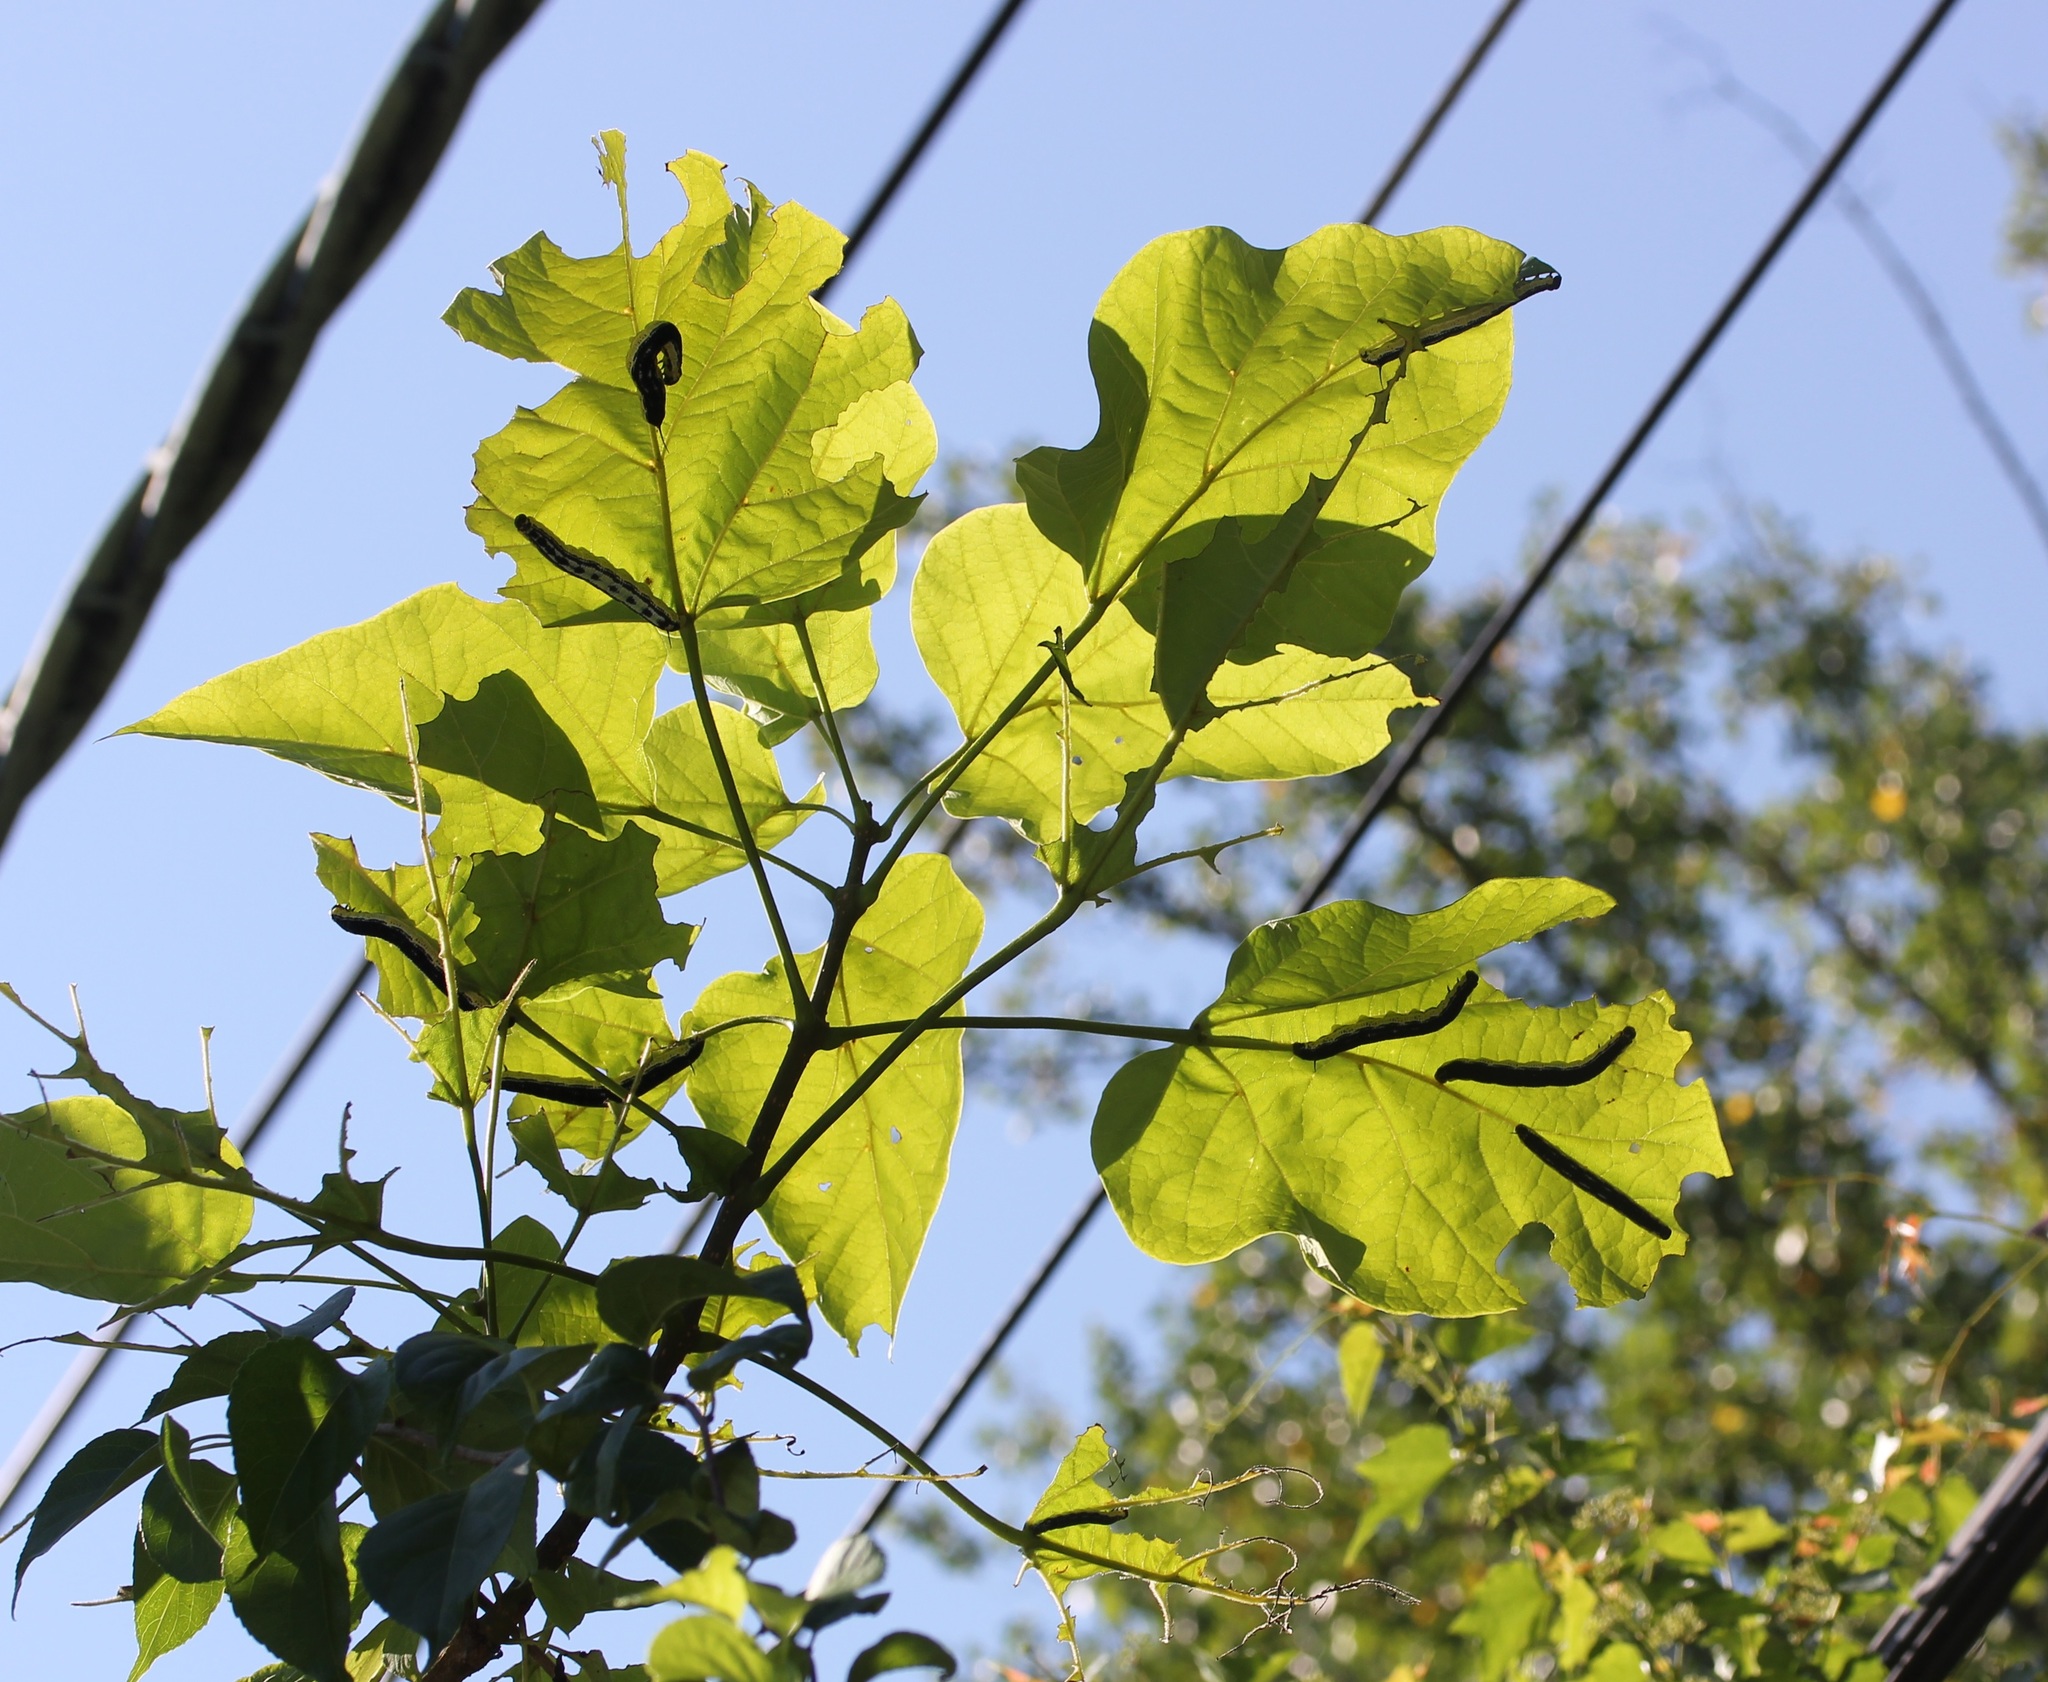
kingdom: Animalia
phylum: Arthropoda
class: Insecta
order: Lepidoptera
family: Sphingidae
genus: Ceratomia
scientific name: Ceratomia catalpae
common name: Catalpa hornworm
